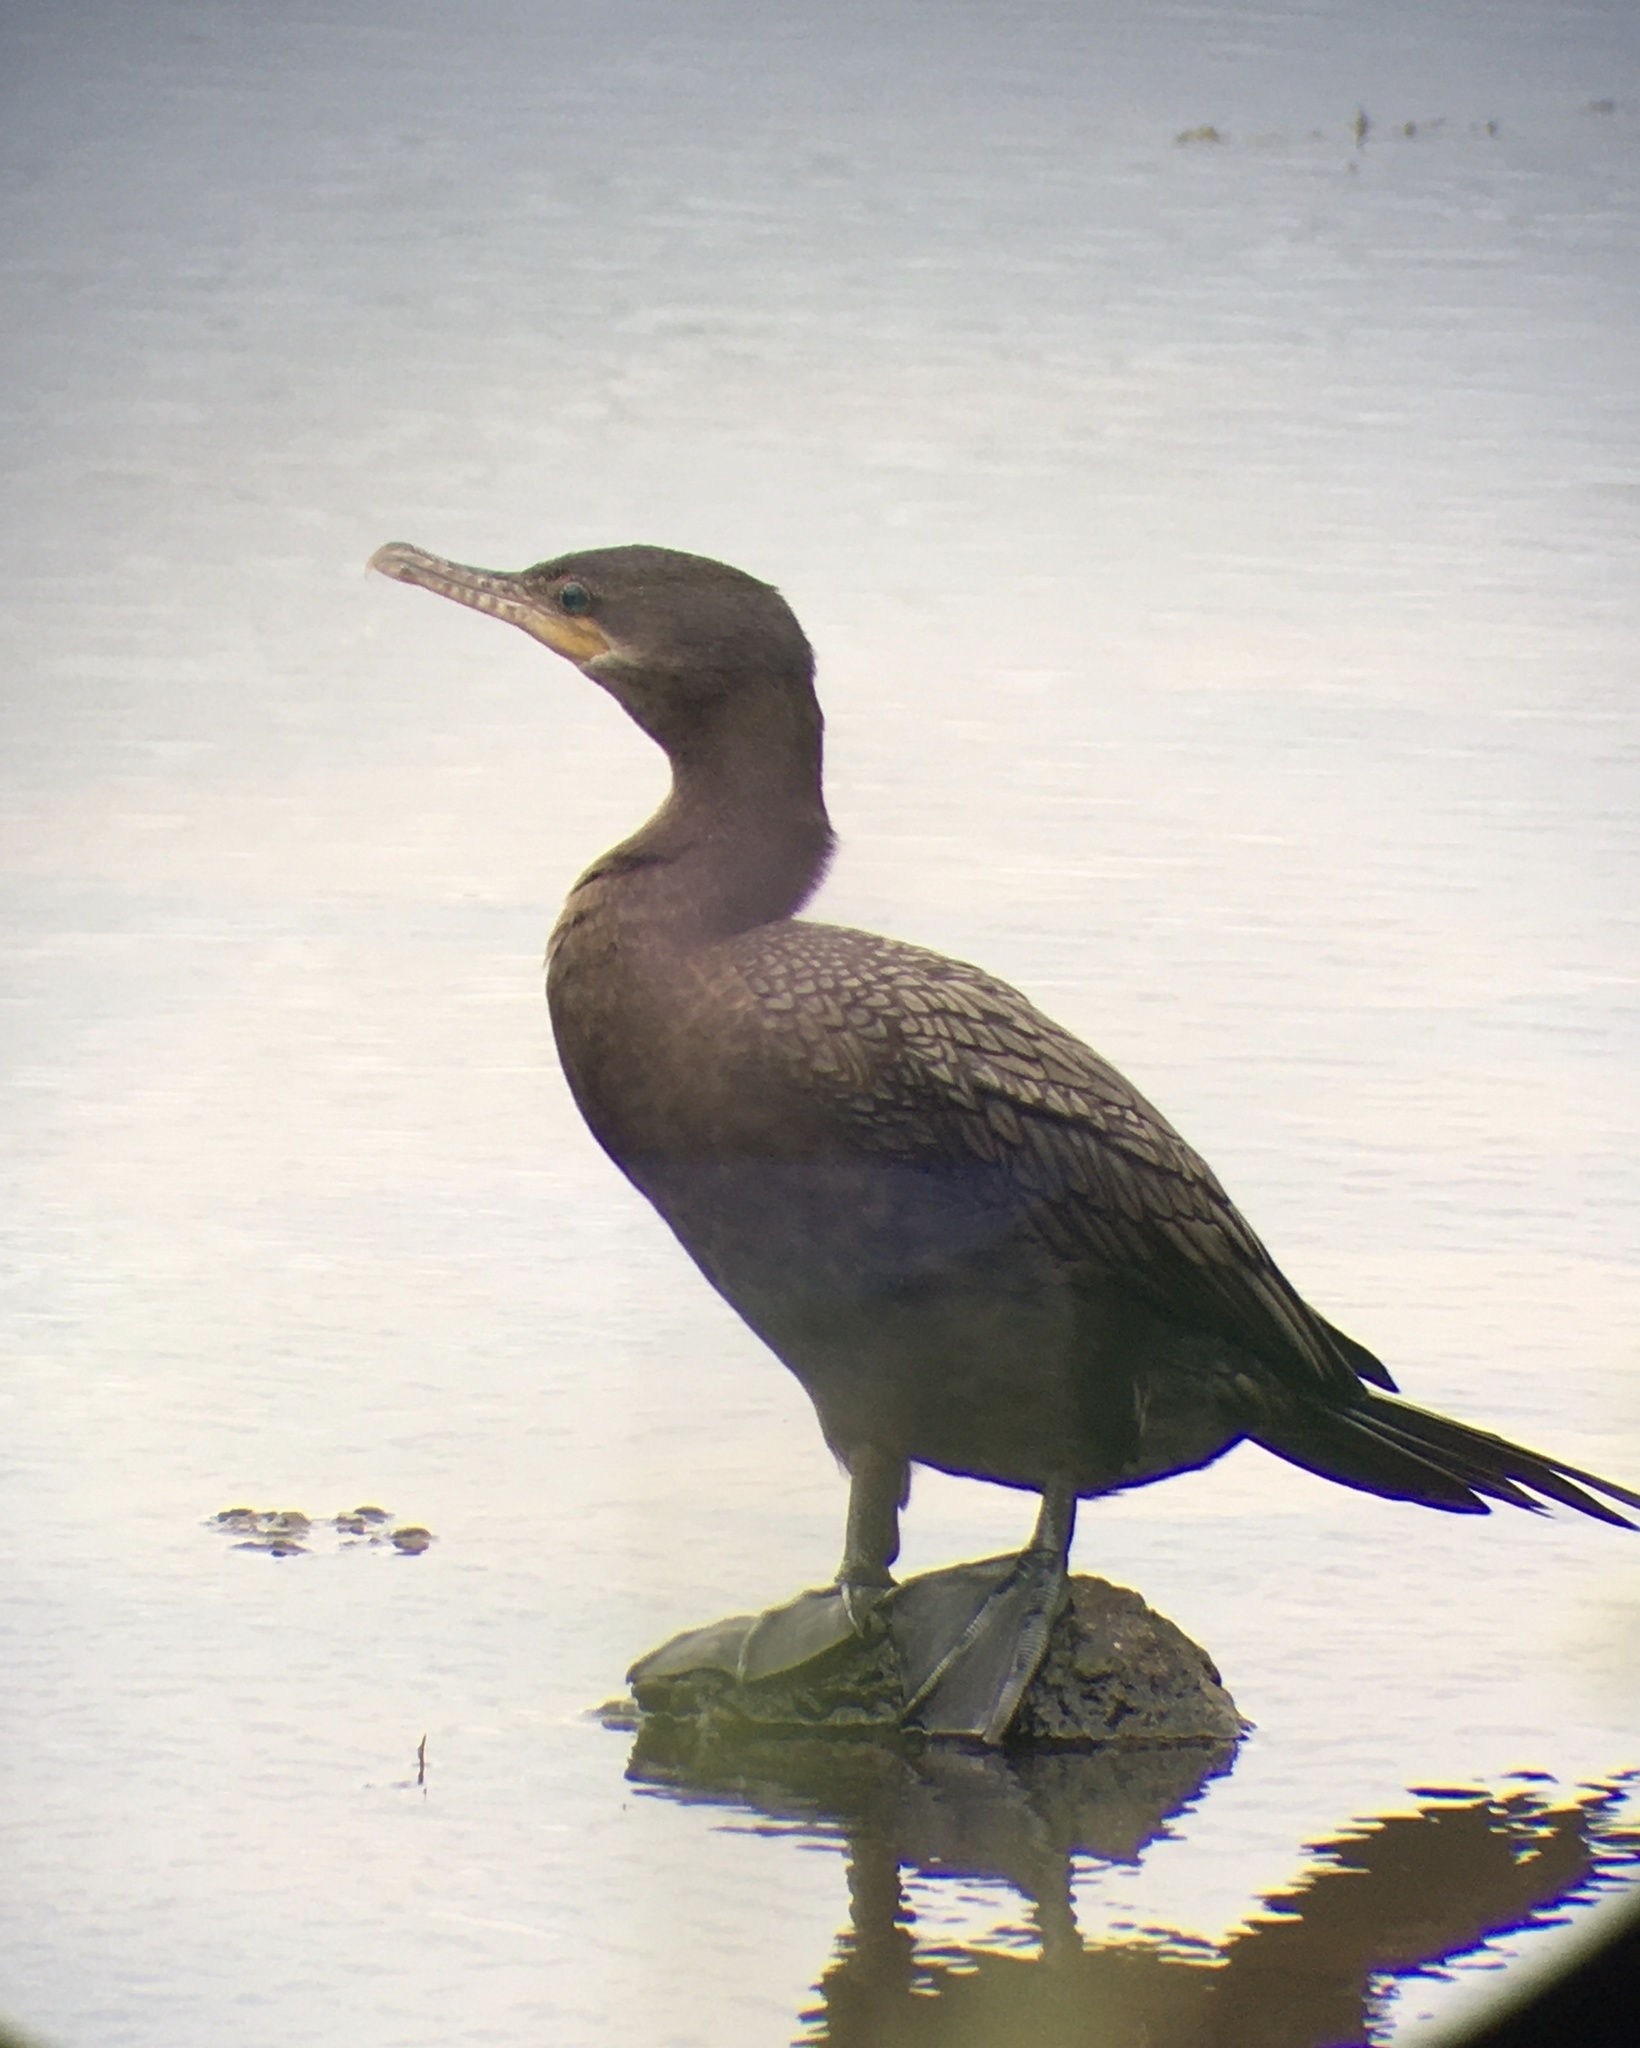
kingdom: Animalia
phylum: Chordata
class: Aves
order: Suliformes
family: Phalacrocoracidae
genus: Phalacrocorax
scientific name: Phalacrocorax brasilianus
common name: Neotropic cormorant
